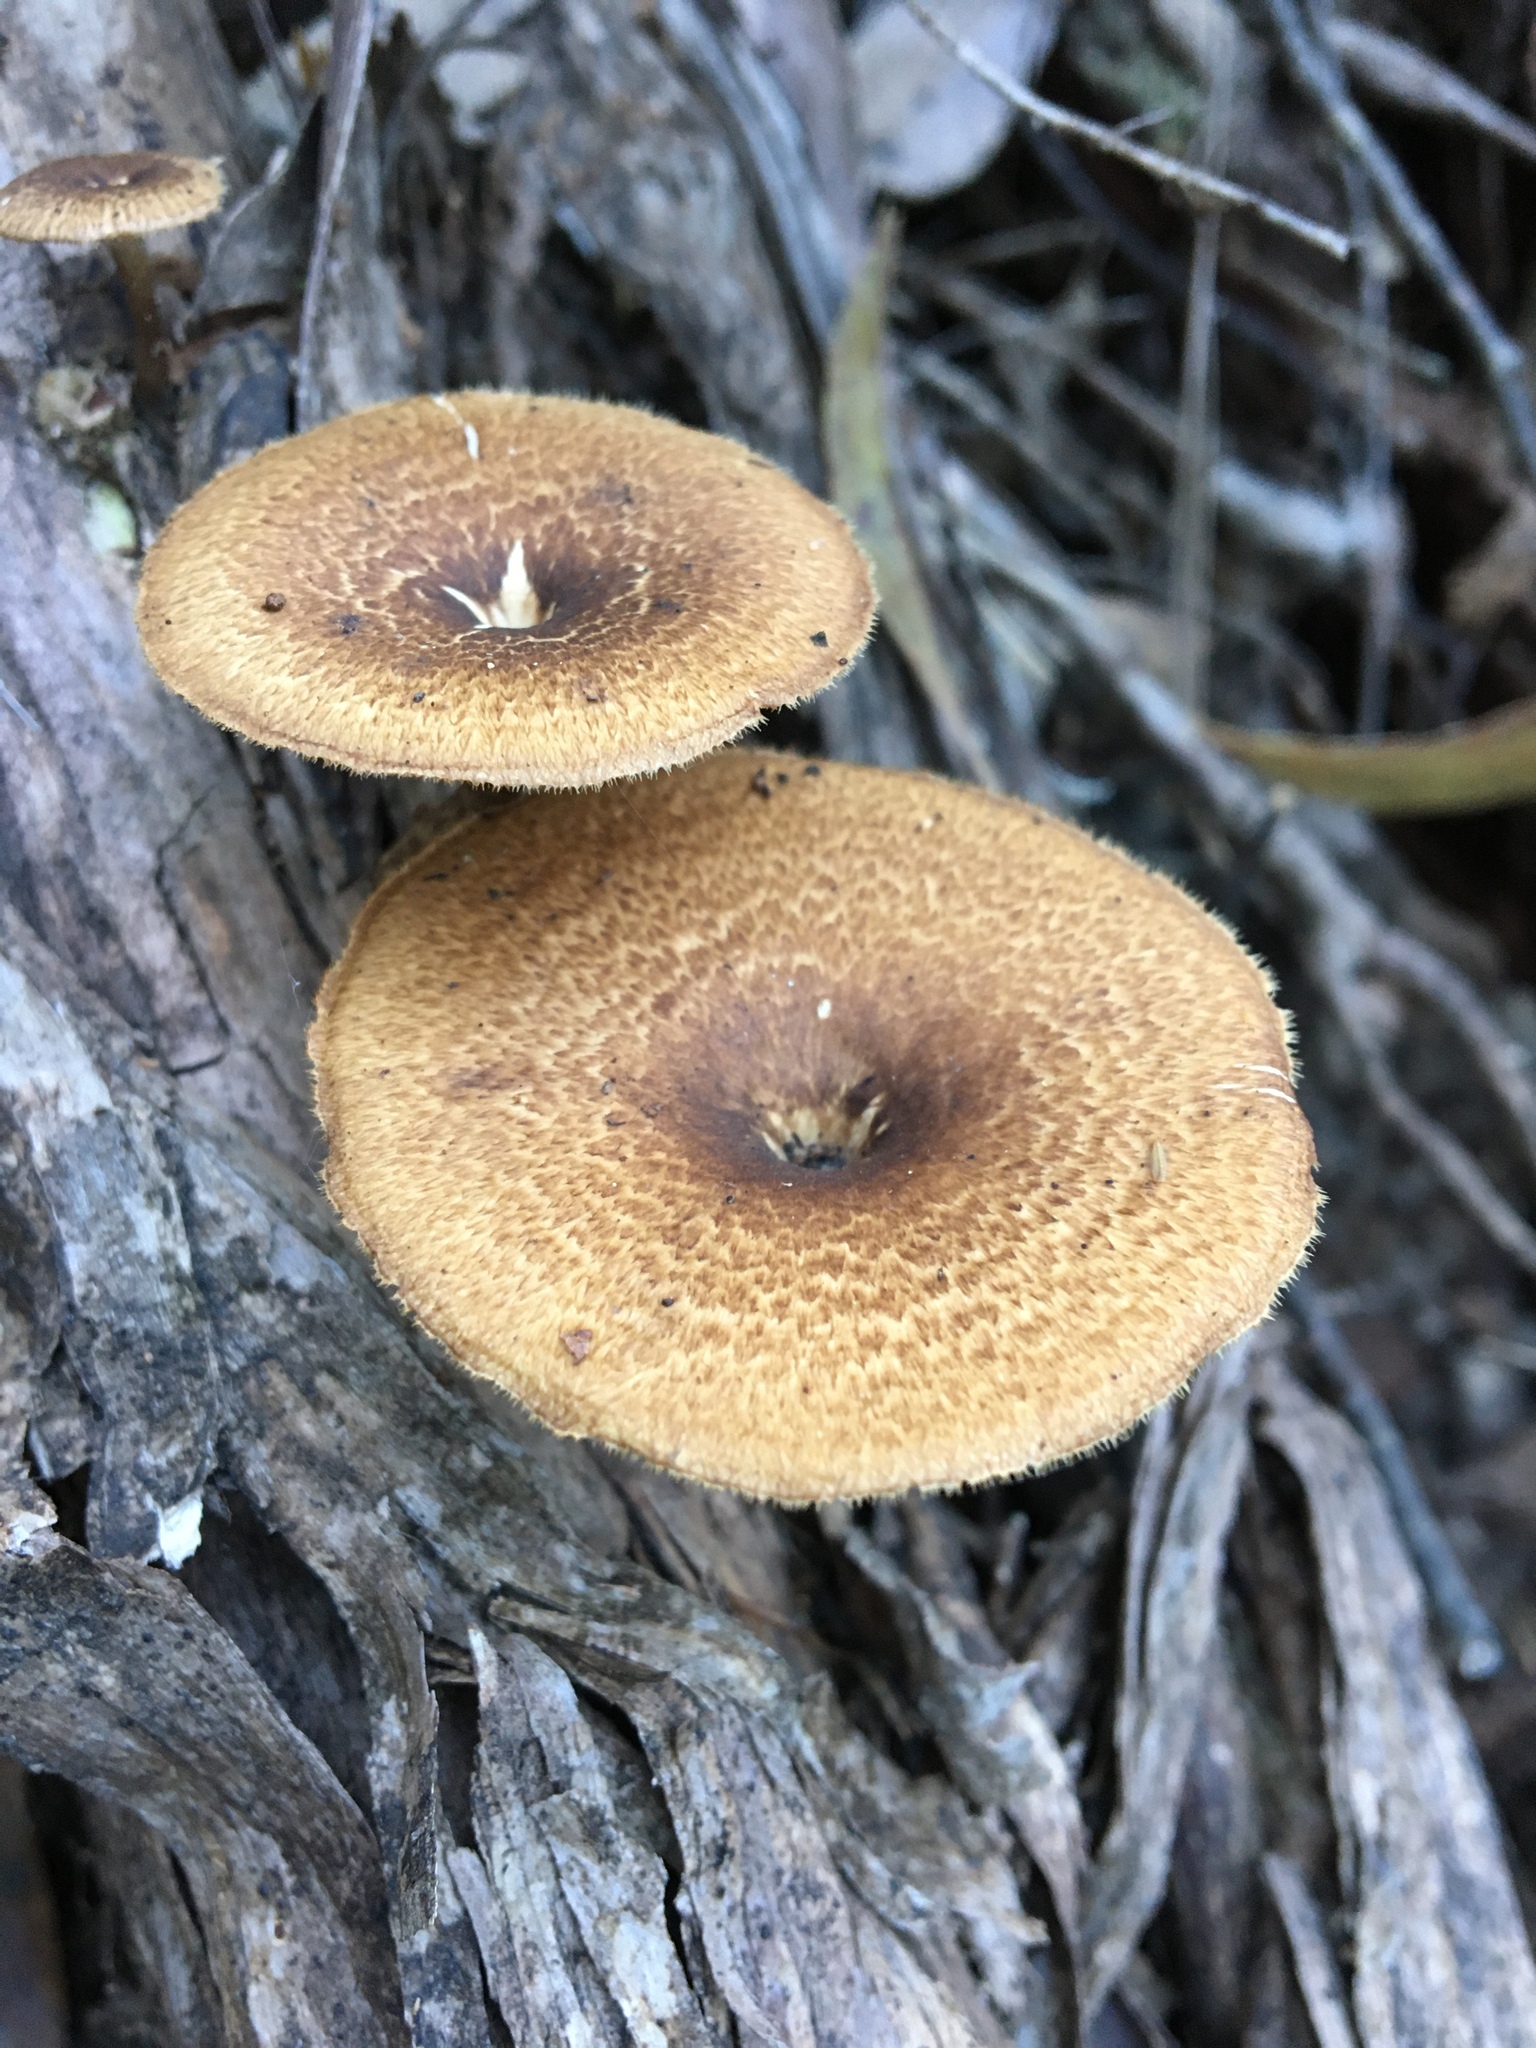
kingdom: Fungi
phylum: Basidiomycota
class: Agaricomycetes
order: Polyporales
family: Polyporaceae
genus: Lentinus
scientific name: Lentinus arcularius
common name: Spring polypore
